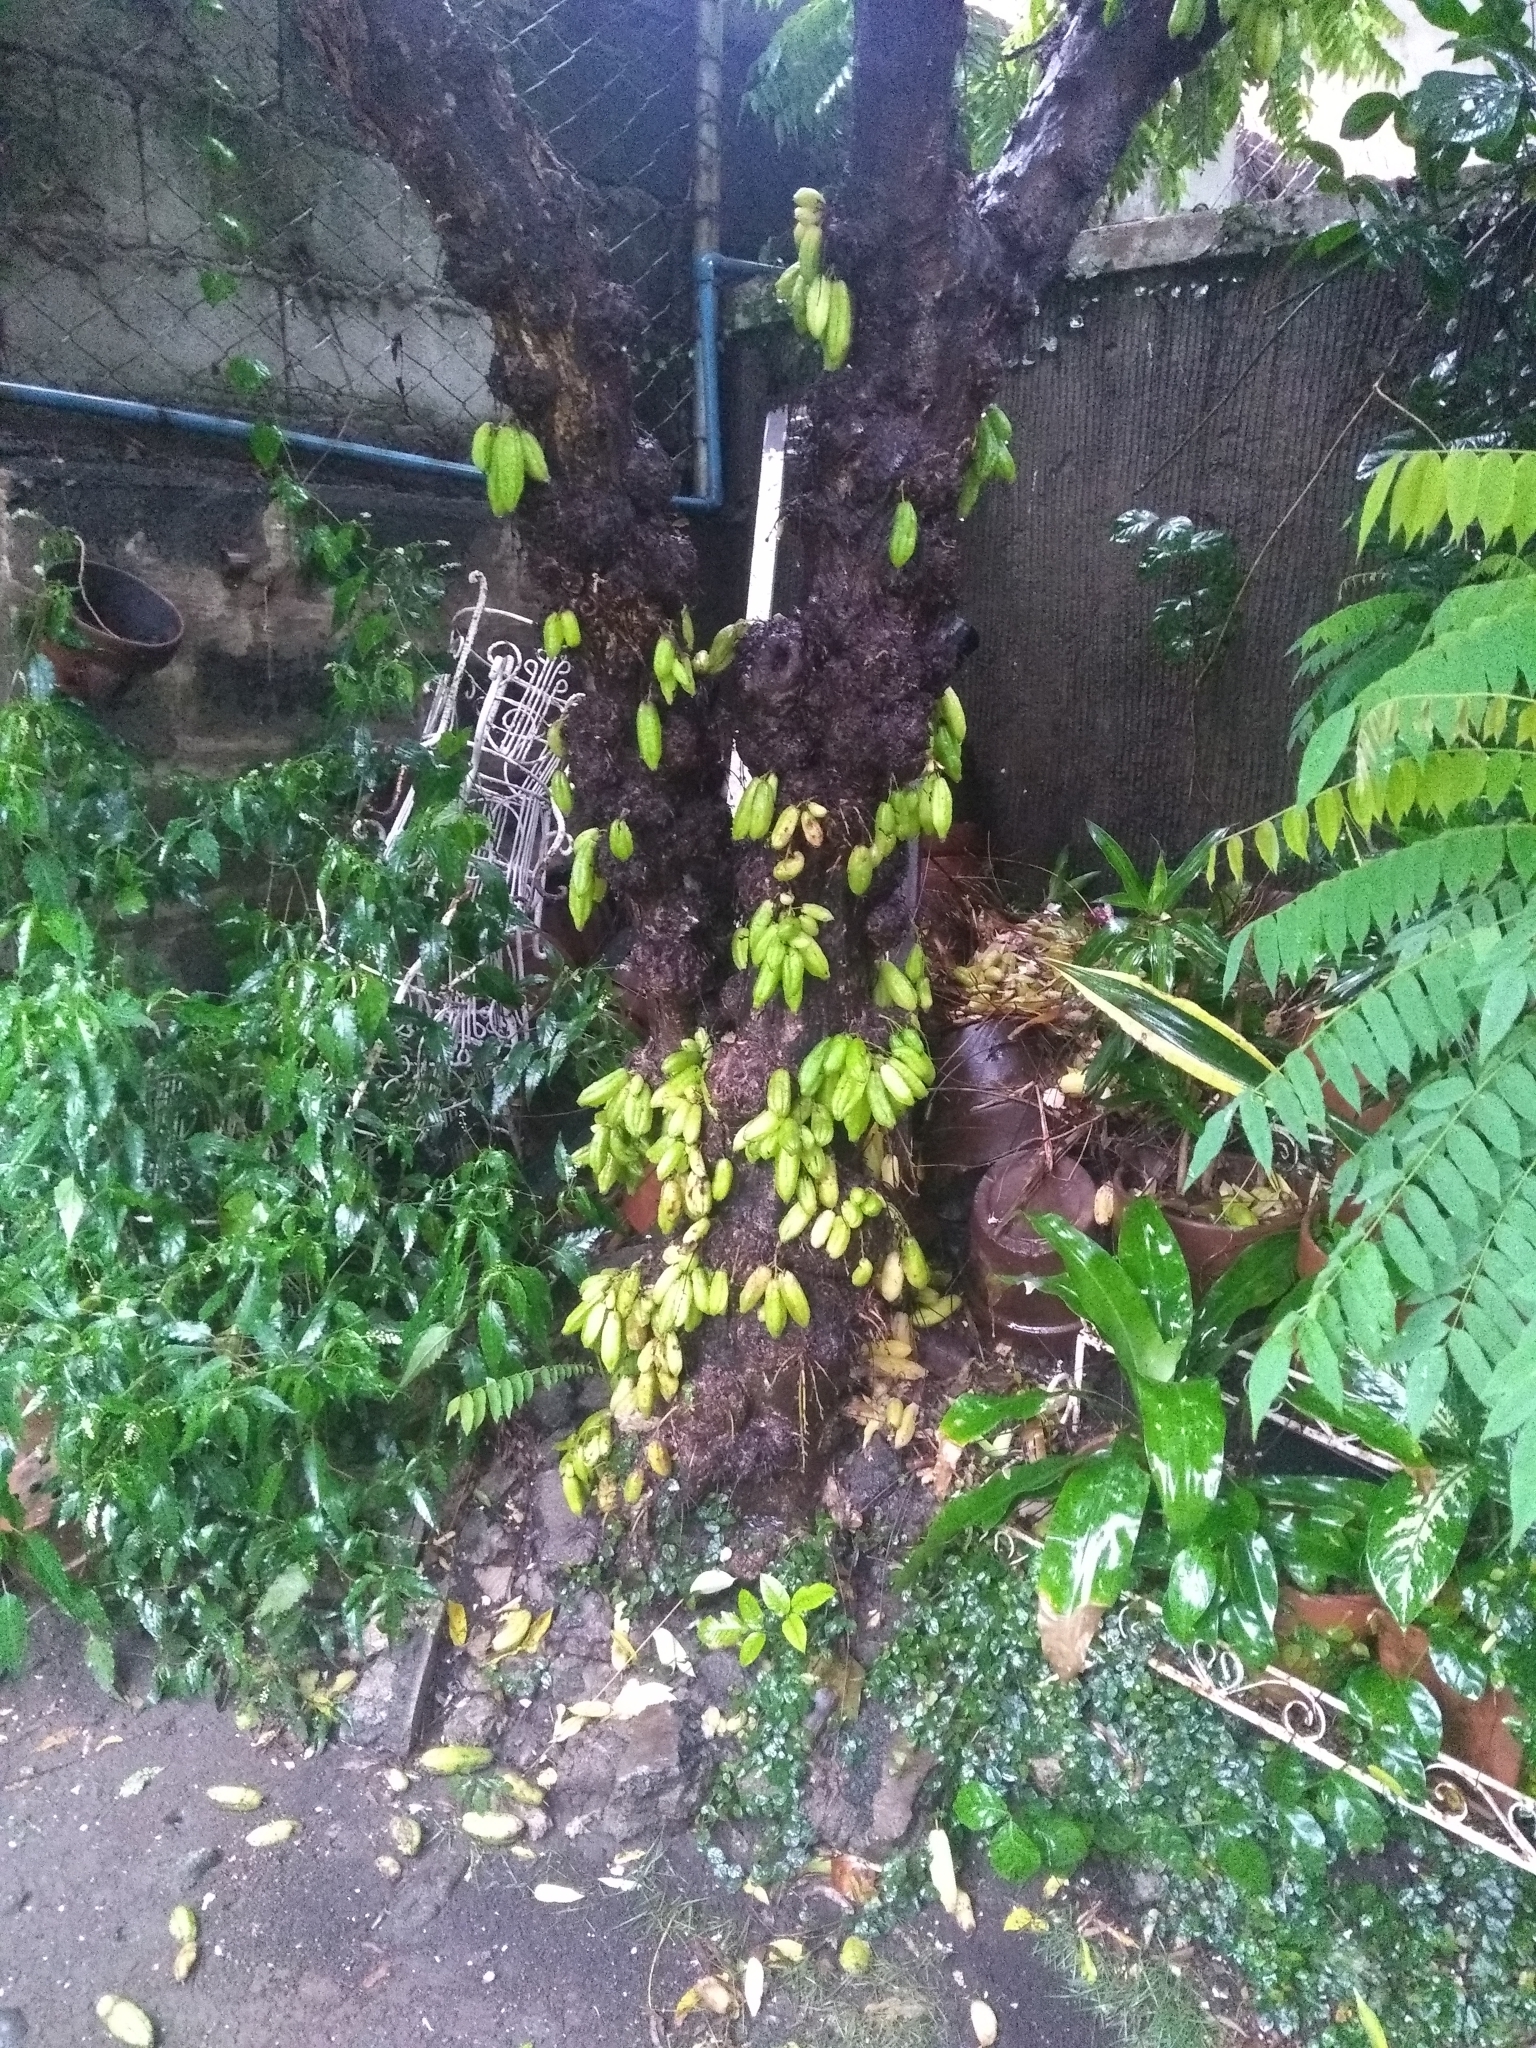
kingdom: Plantae
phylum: Tracheophyta
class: Magnoliopsida
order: Oxalidales
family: Oxalidaceae
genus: Averrhoa
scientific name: Averrhoa bilimbi
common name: Bilimbi
